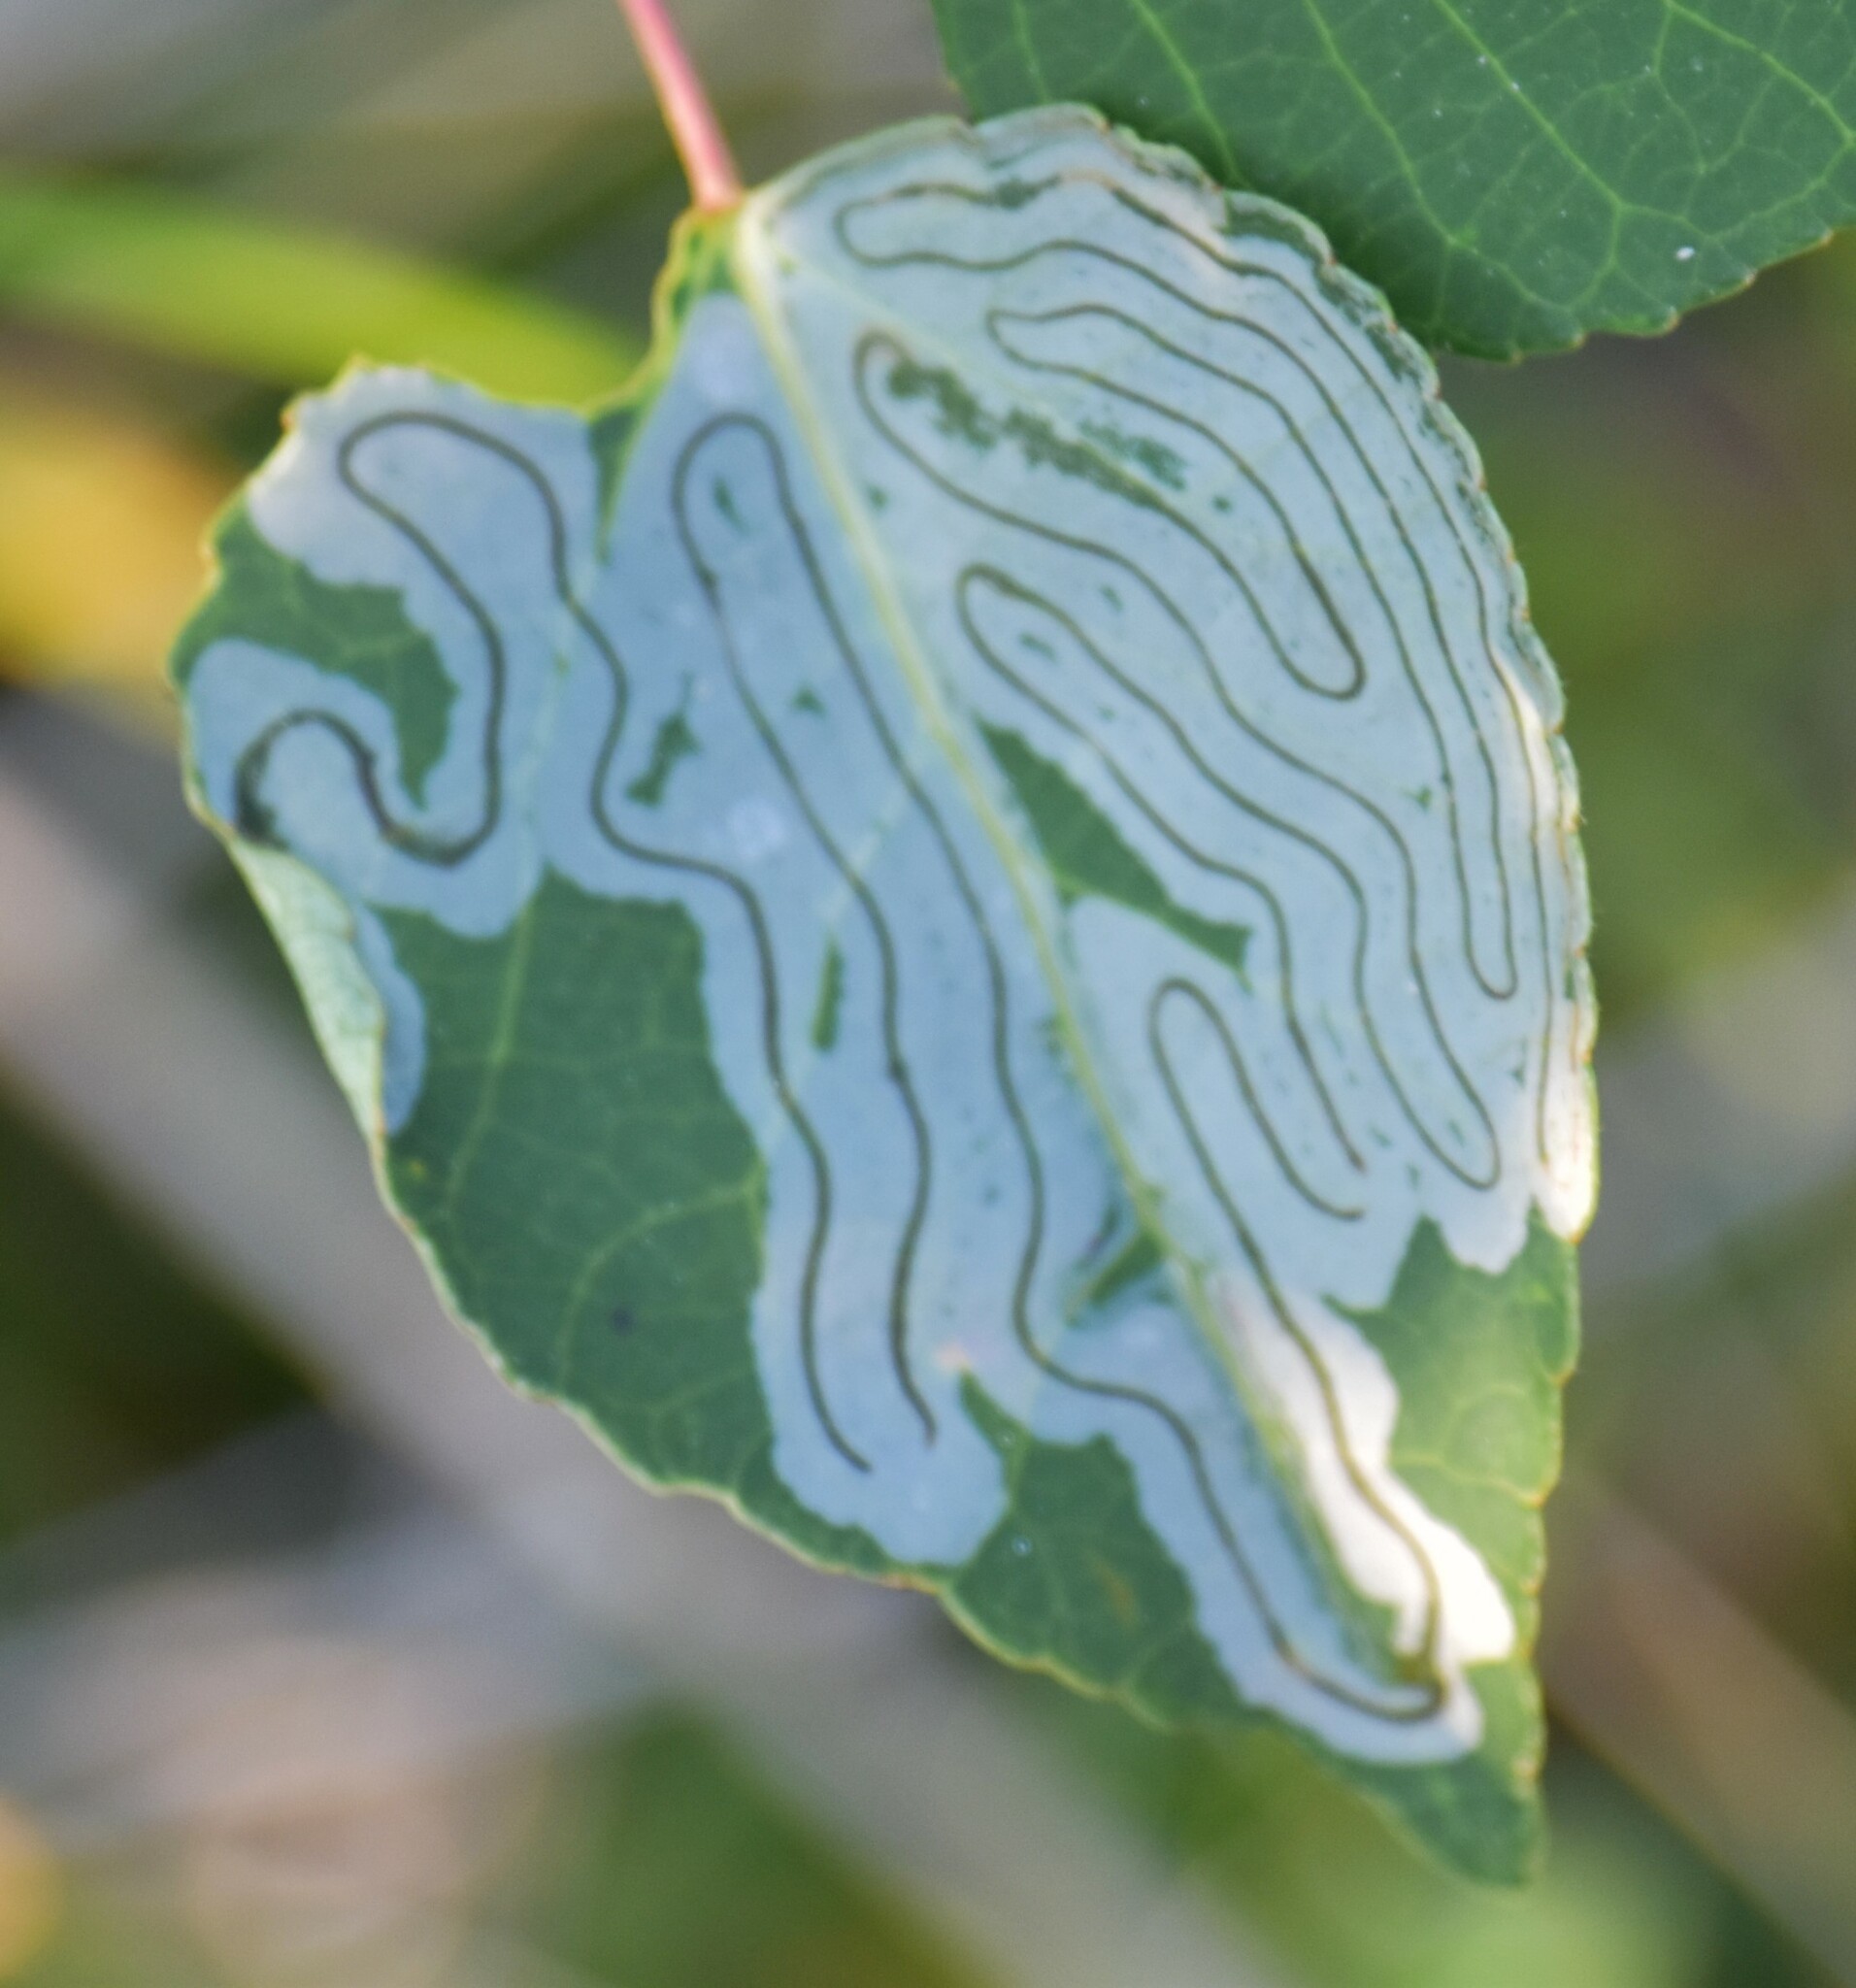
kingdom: Animalia
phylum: Arthropoda
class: Insecta
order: Lepidoptera
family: Gracillariidae
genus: Phyllocnistis
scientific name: Phyllocnistis populiella
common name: Aspen serpentine leafminer moth
